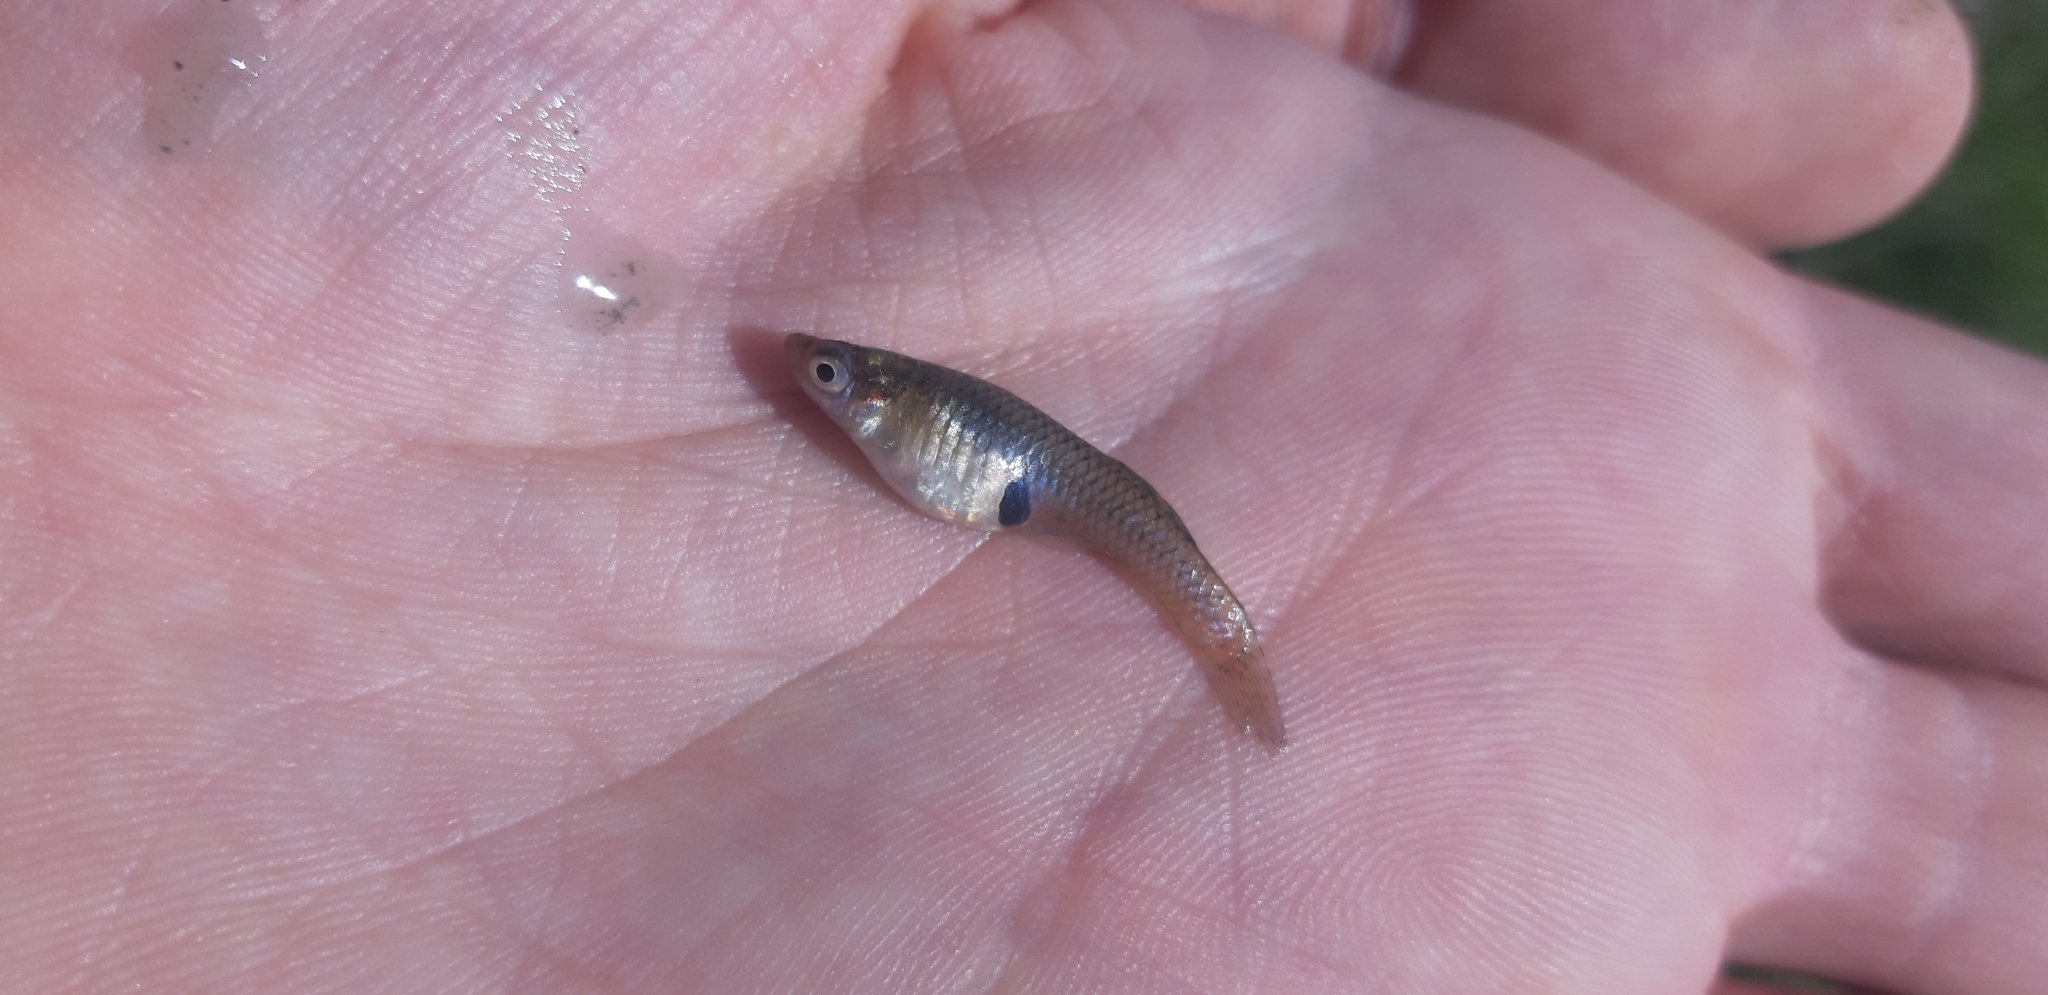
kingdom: Animalia
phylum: Chordata
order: Cyprinodontiformes
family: Poeciliidae
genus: Gambusia
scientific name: Gambusia holbrooki
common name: Eastern mosquitofish
